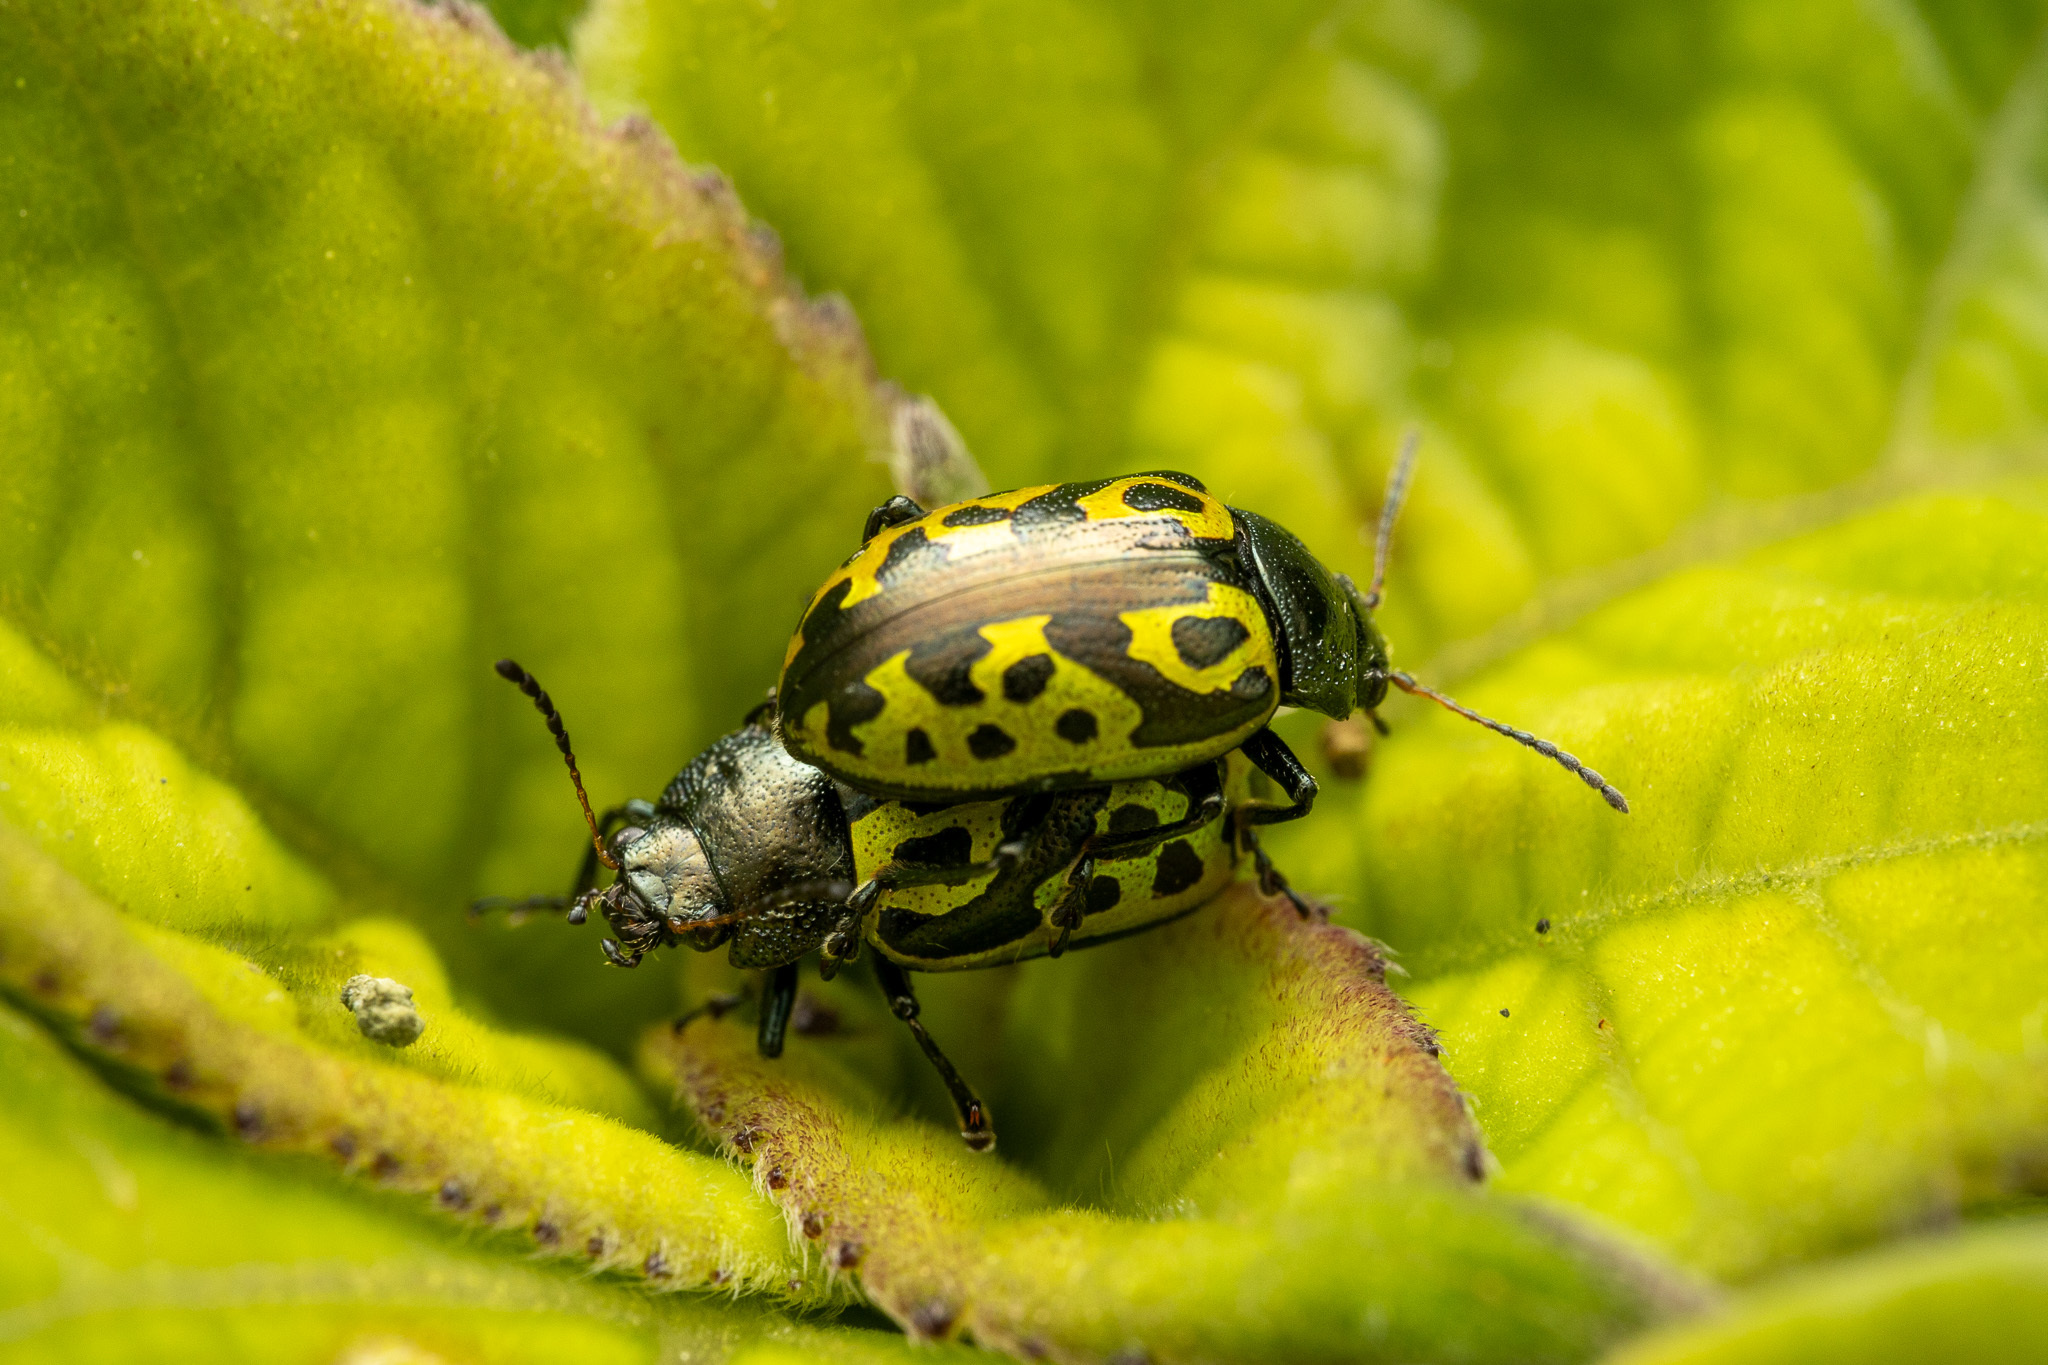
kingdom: Animalia
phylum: Arthropoda
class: Insecta
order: Coleoptera
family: Chrysomelidae
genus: Calligrapha
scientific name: Calligrapha
